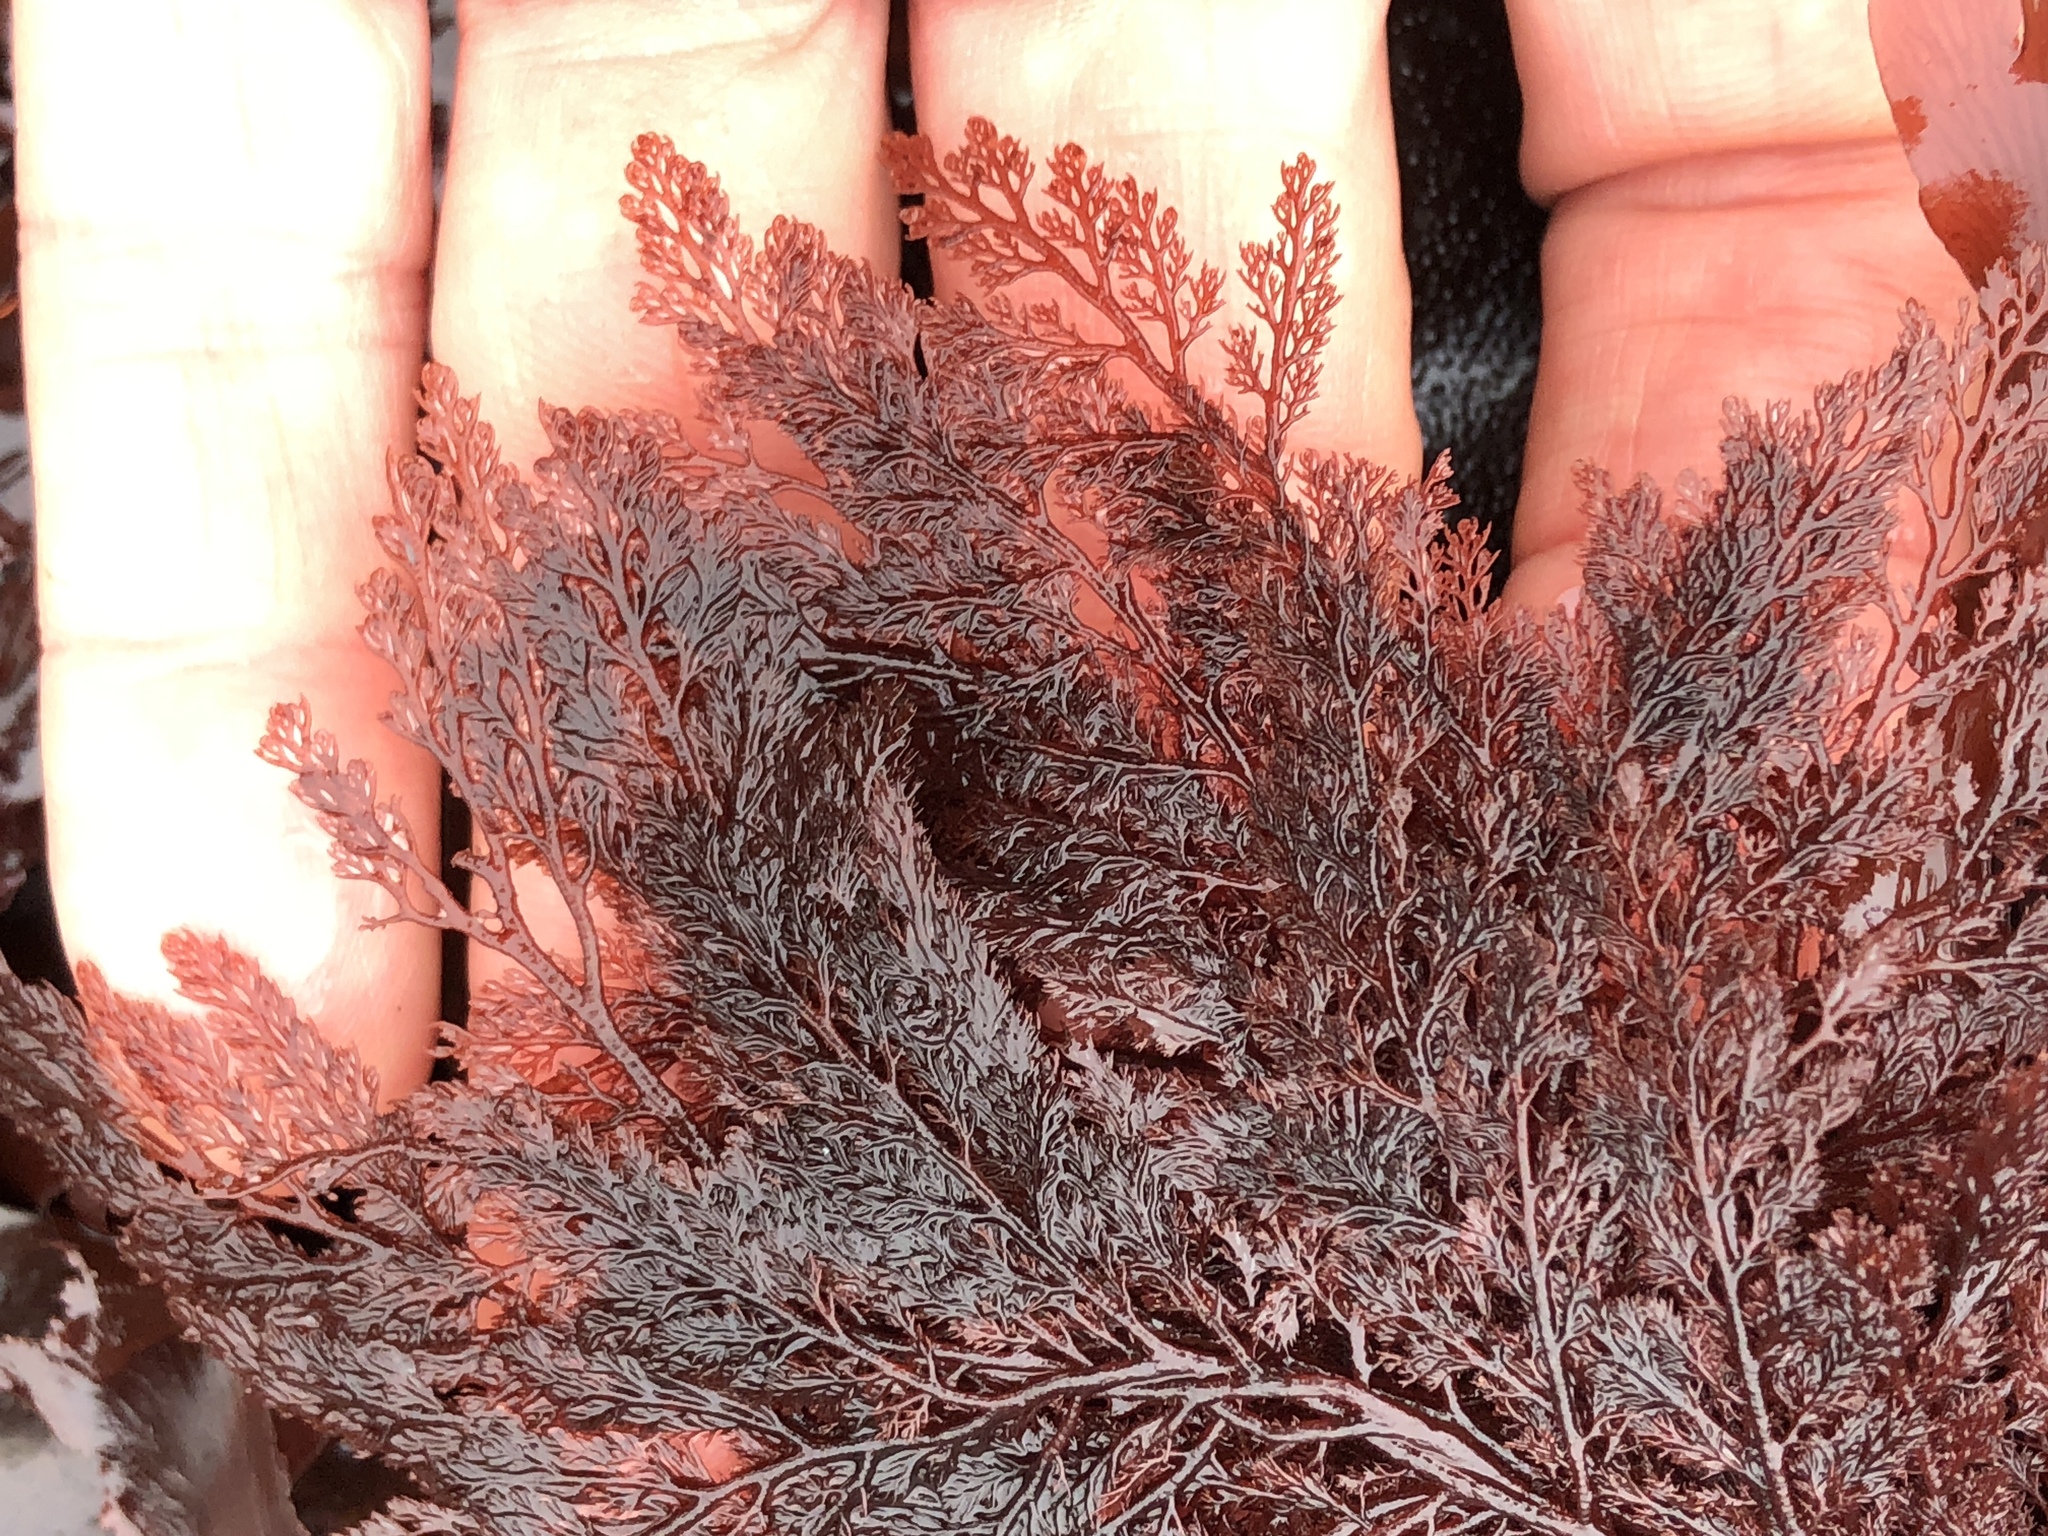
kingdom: Plantae
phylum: Rhodophyta
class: Florideophyceae
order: Ceramiales
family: Ceramiaceae
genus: Microcladia
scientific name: Microcladia coulteri
